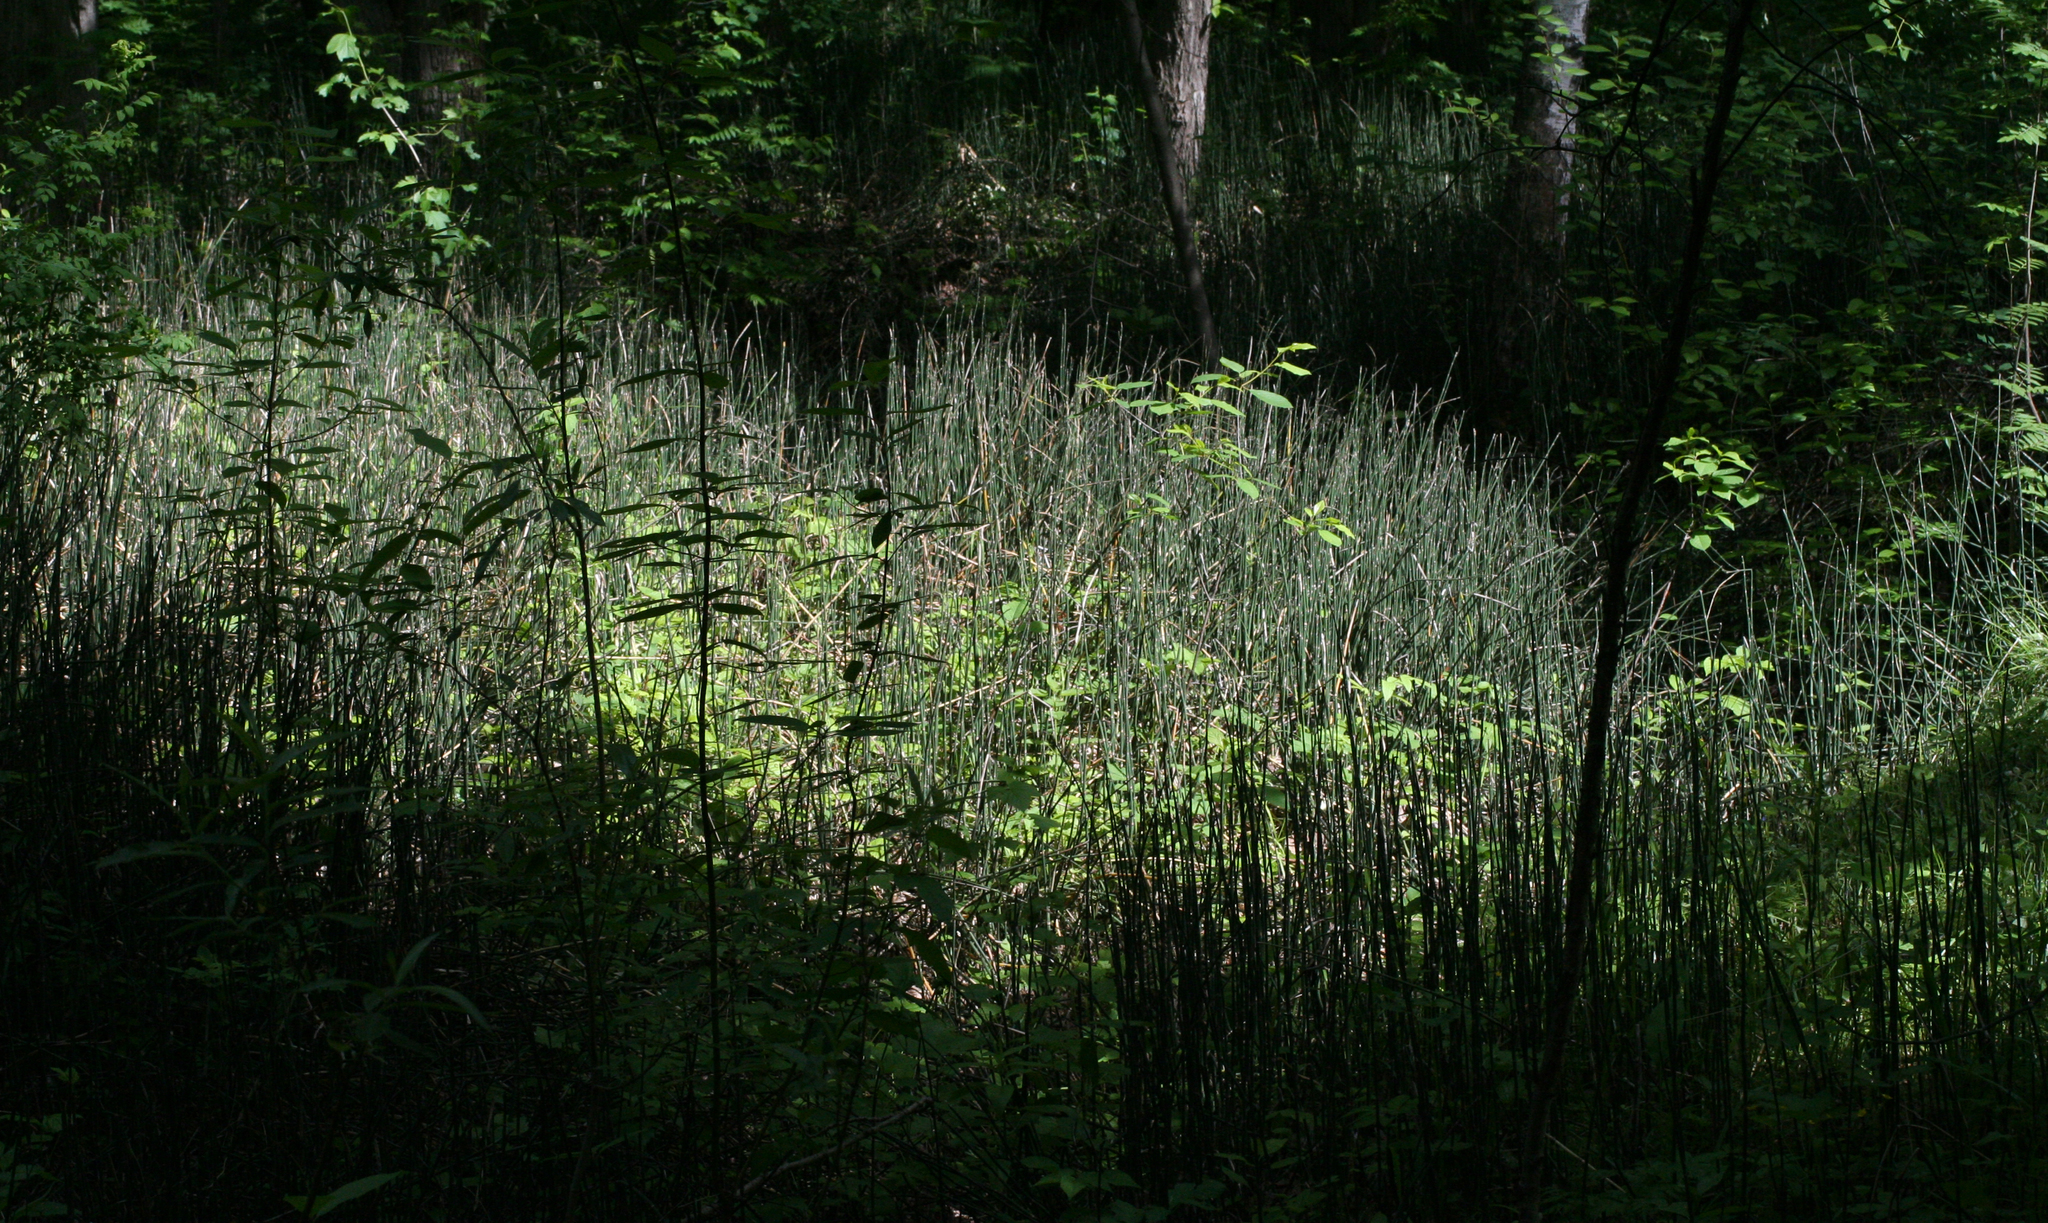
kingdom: Plantae
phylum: Tracheophyta
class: Polypodiopsida
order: Equisetales
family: Equisetaceae
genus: Equisetum
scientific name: Equisetum hyemale
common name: Rough horsetail
